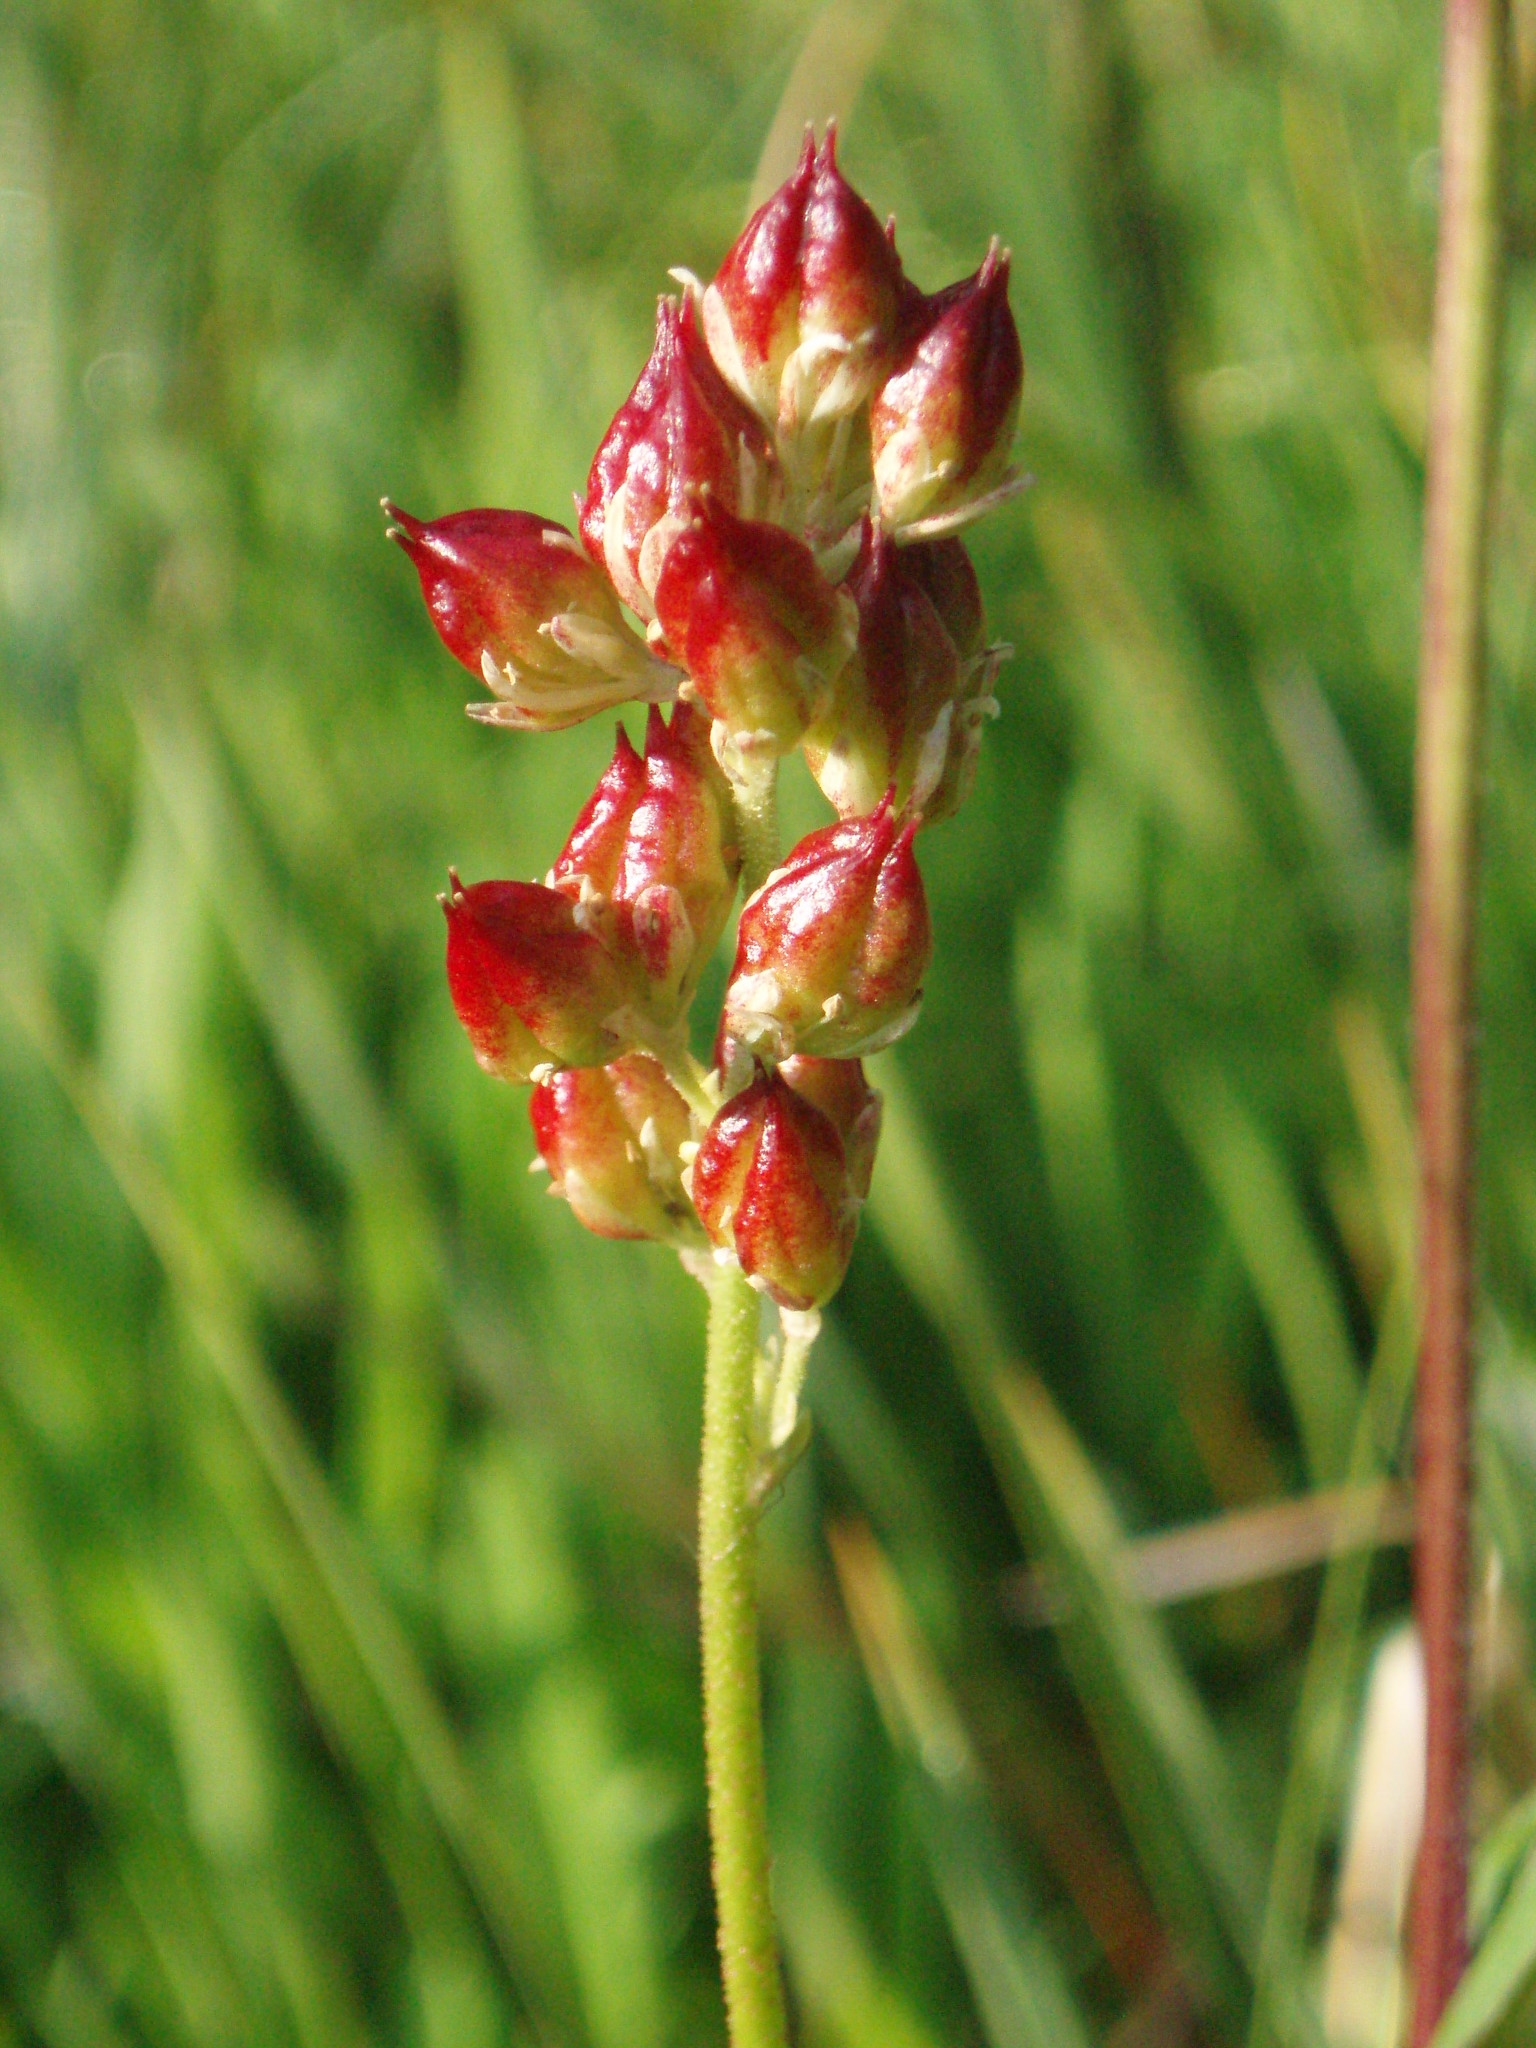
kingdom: Plantae
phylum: Tracheophyta
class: Liliopsida
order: Alismatales
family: Tofieldiaceae
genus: Triantha
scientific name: Triantha occidentalis
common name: Western false asphodel
